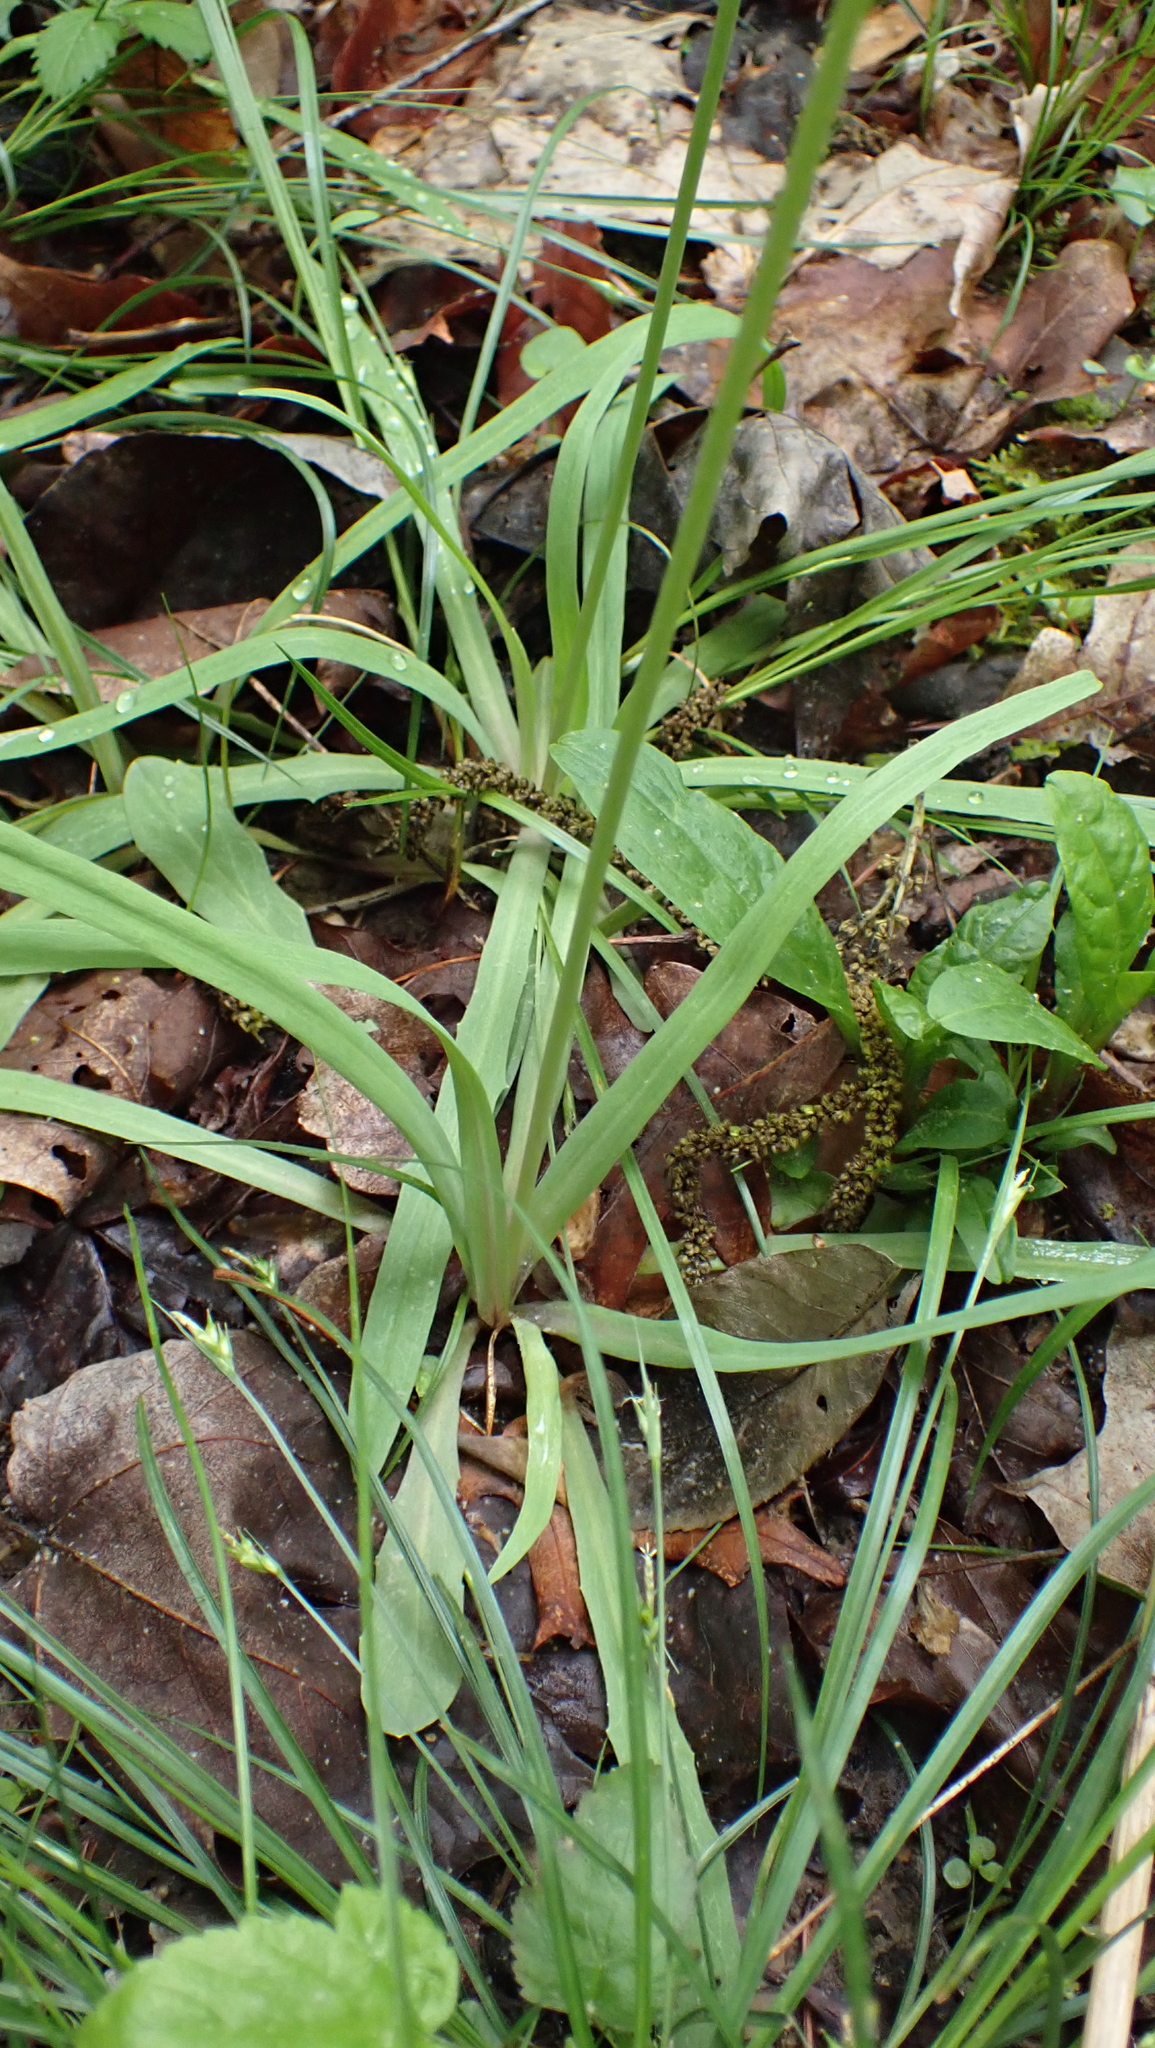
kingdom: Plantae
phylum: Tracheophyta
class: Magnoliopsida
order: Asterales
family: Asteraceae
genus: Krigia
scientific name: Krigia dandelion
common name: Colonial dwarf-dandelion
